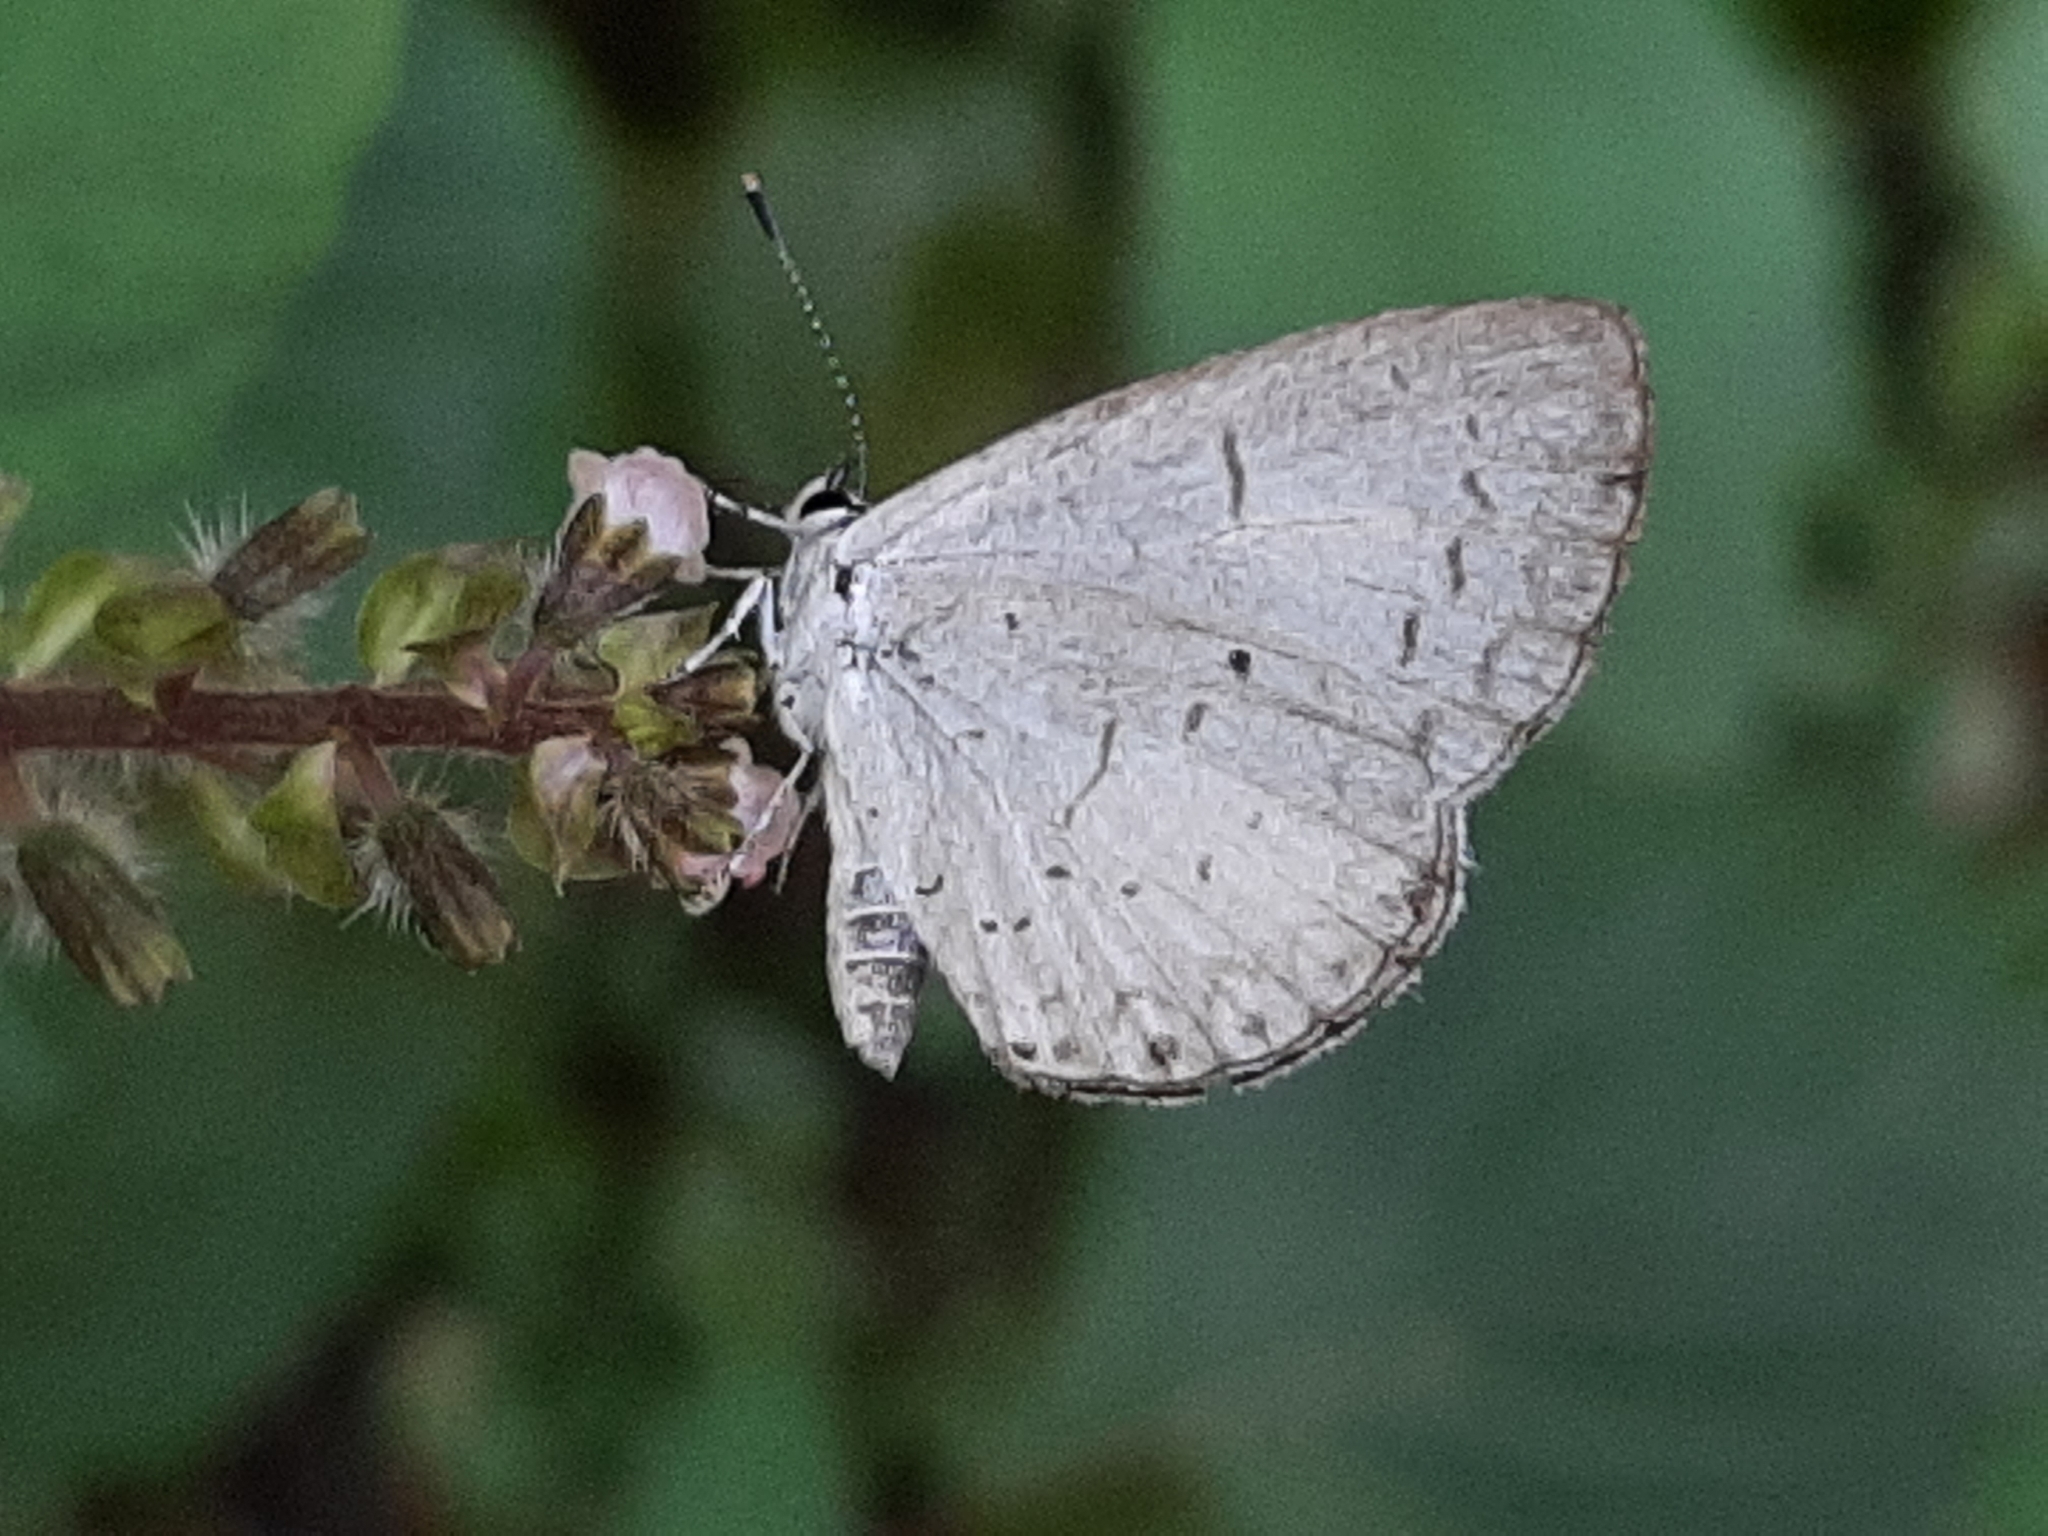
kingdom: Animalia
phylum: Arthropoda
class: Insecta
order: Lepidoptera
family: Lycaenidae
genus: Cyaniris
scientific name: Cyaniris neglecta
